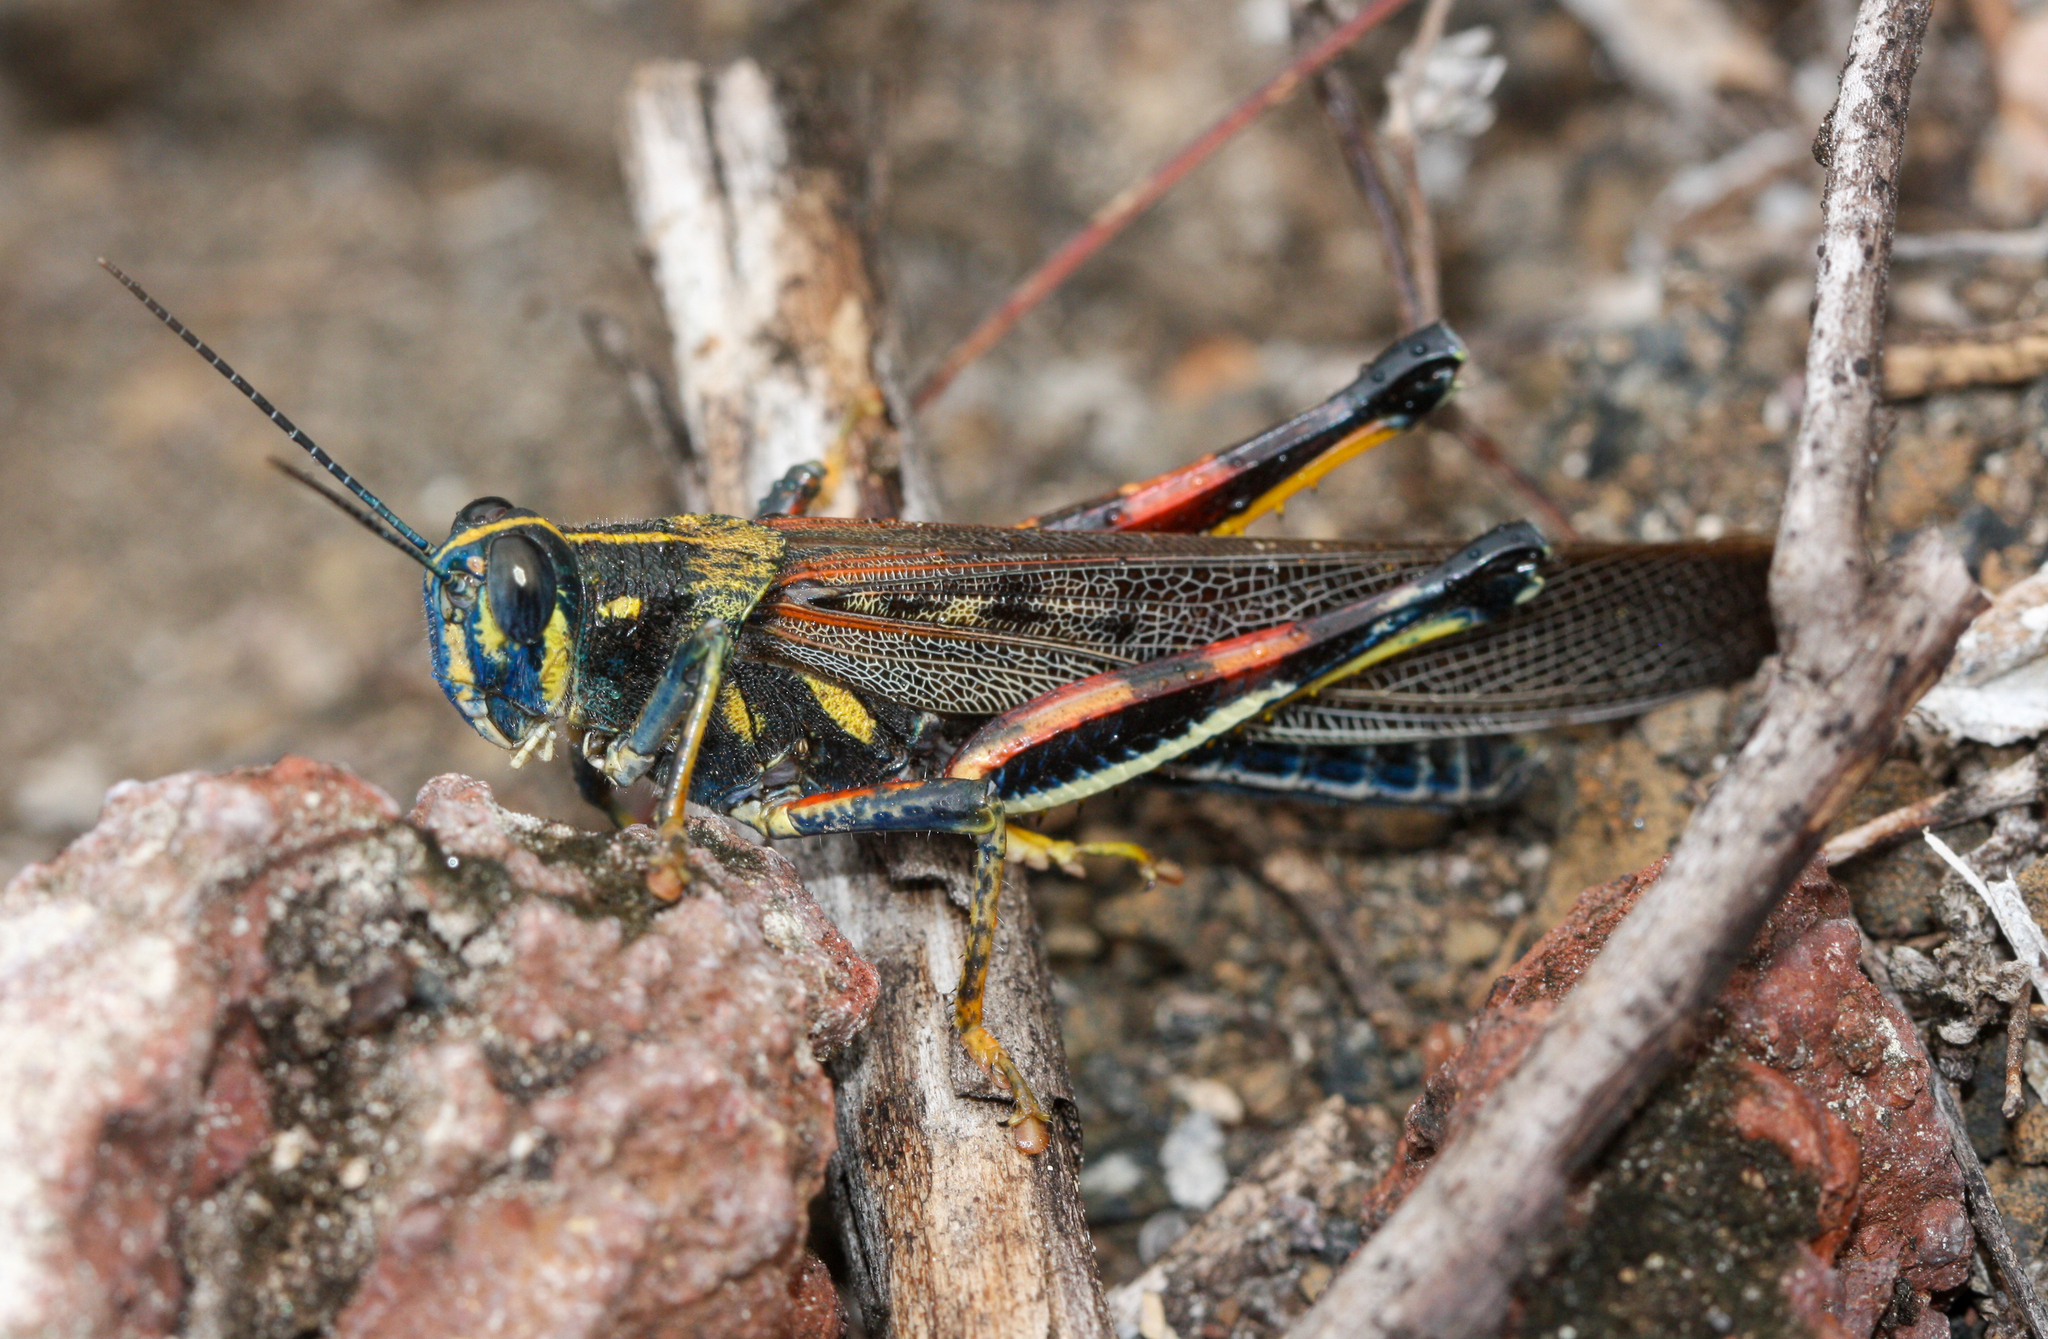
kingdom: Animalia
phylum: Arthropoda
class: Insecta
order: Orthoptera
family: Acrididae
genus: Schistocerca
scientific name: Schistocerca melanocera
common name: Large painted locust
